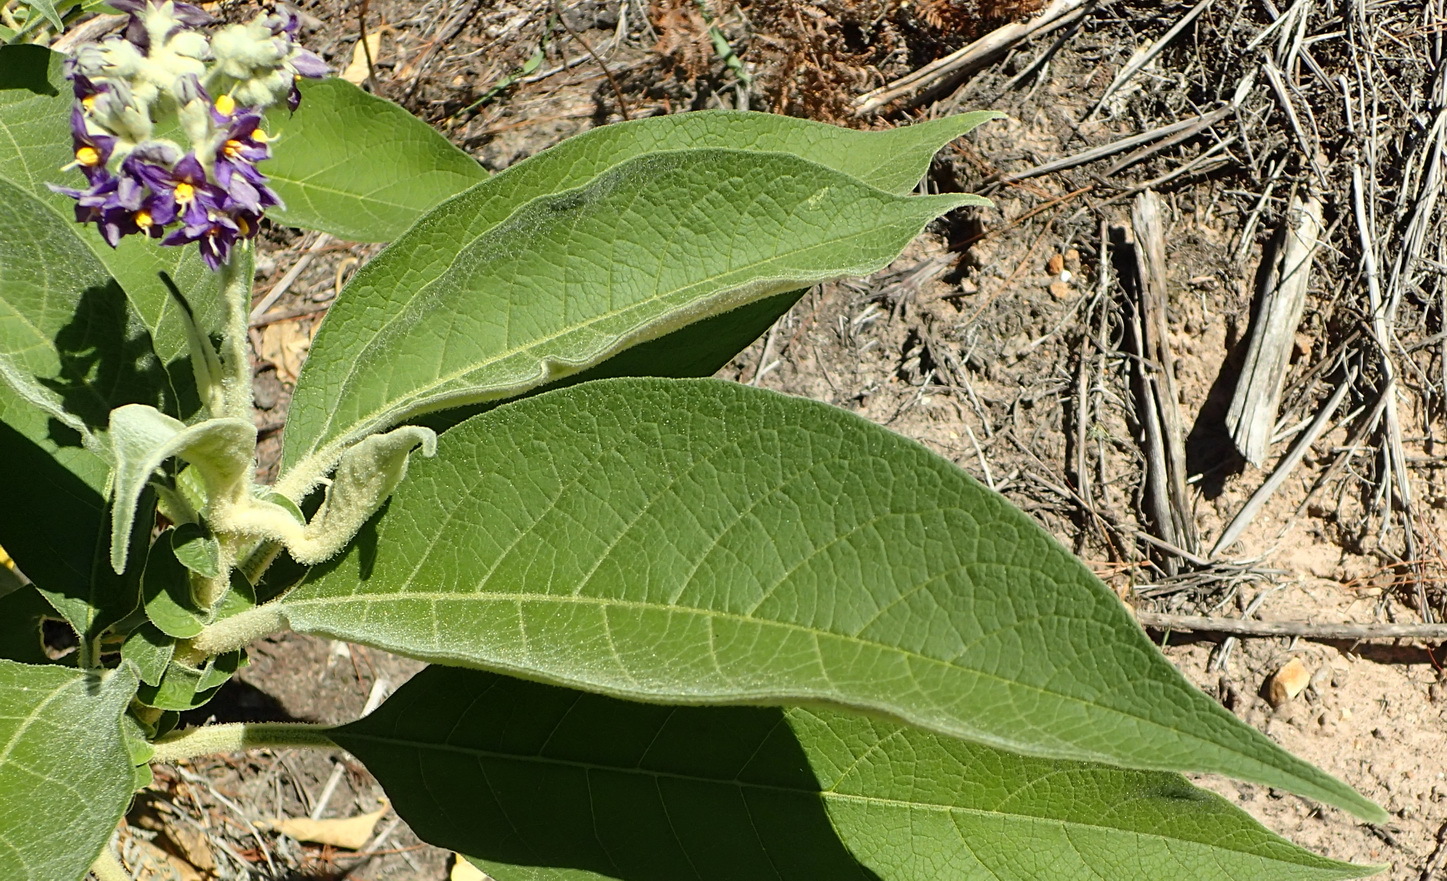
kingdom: Plantae
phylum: Tracheophyta
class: Magnoliopsida
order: Solanales
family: Solanaceae
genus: Solanum
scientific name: Solanum mauritianum
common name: Earleaf nightshade
